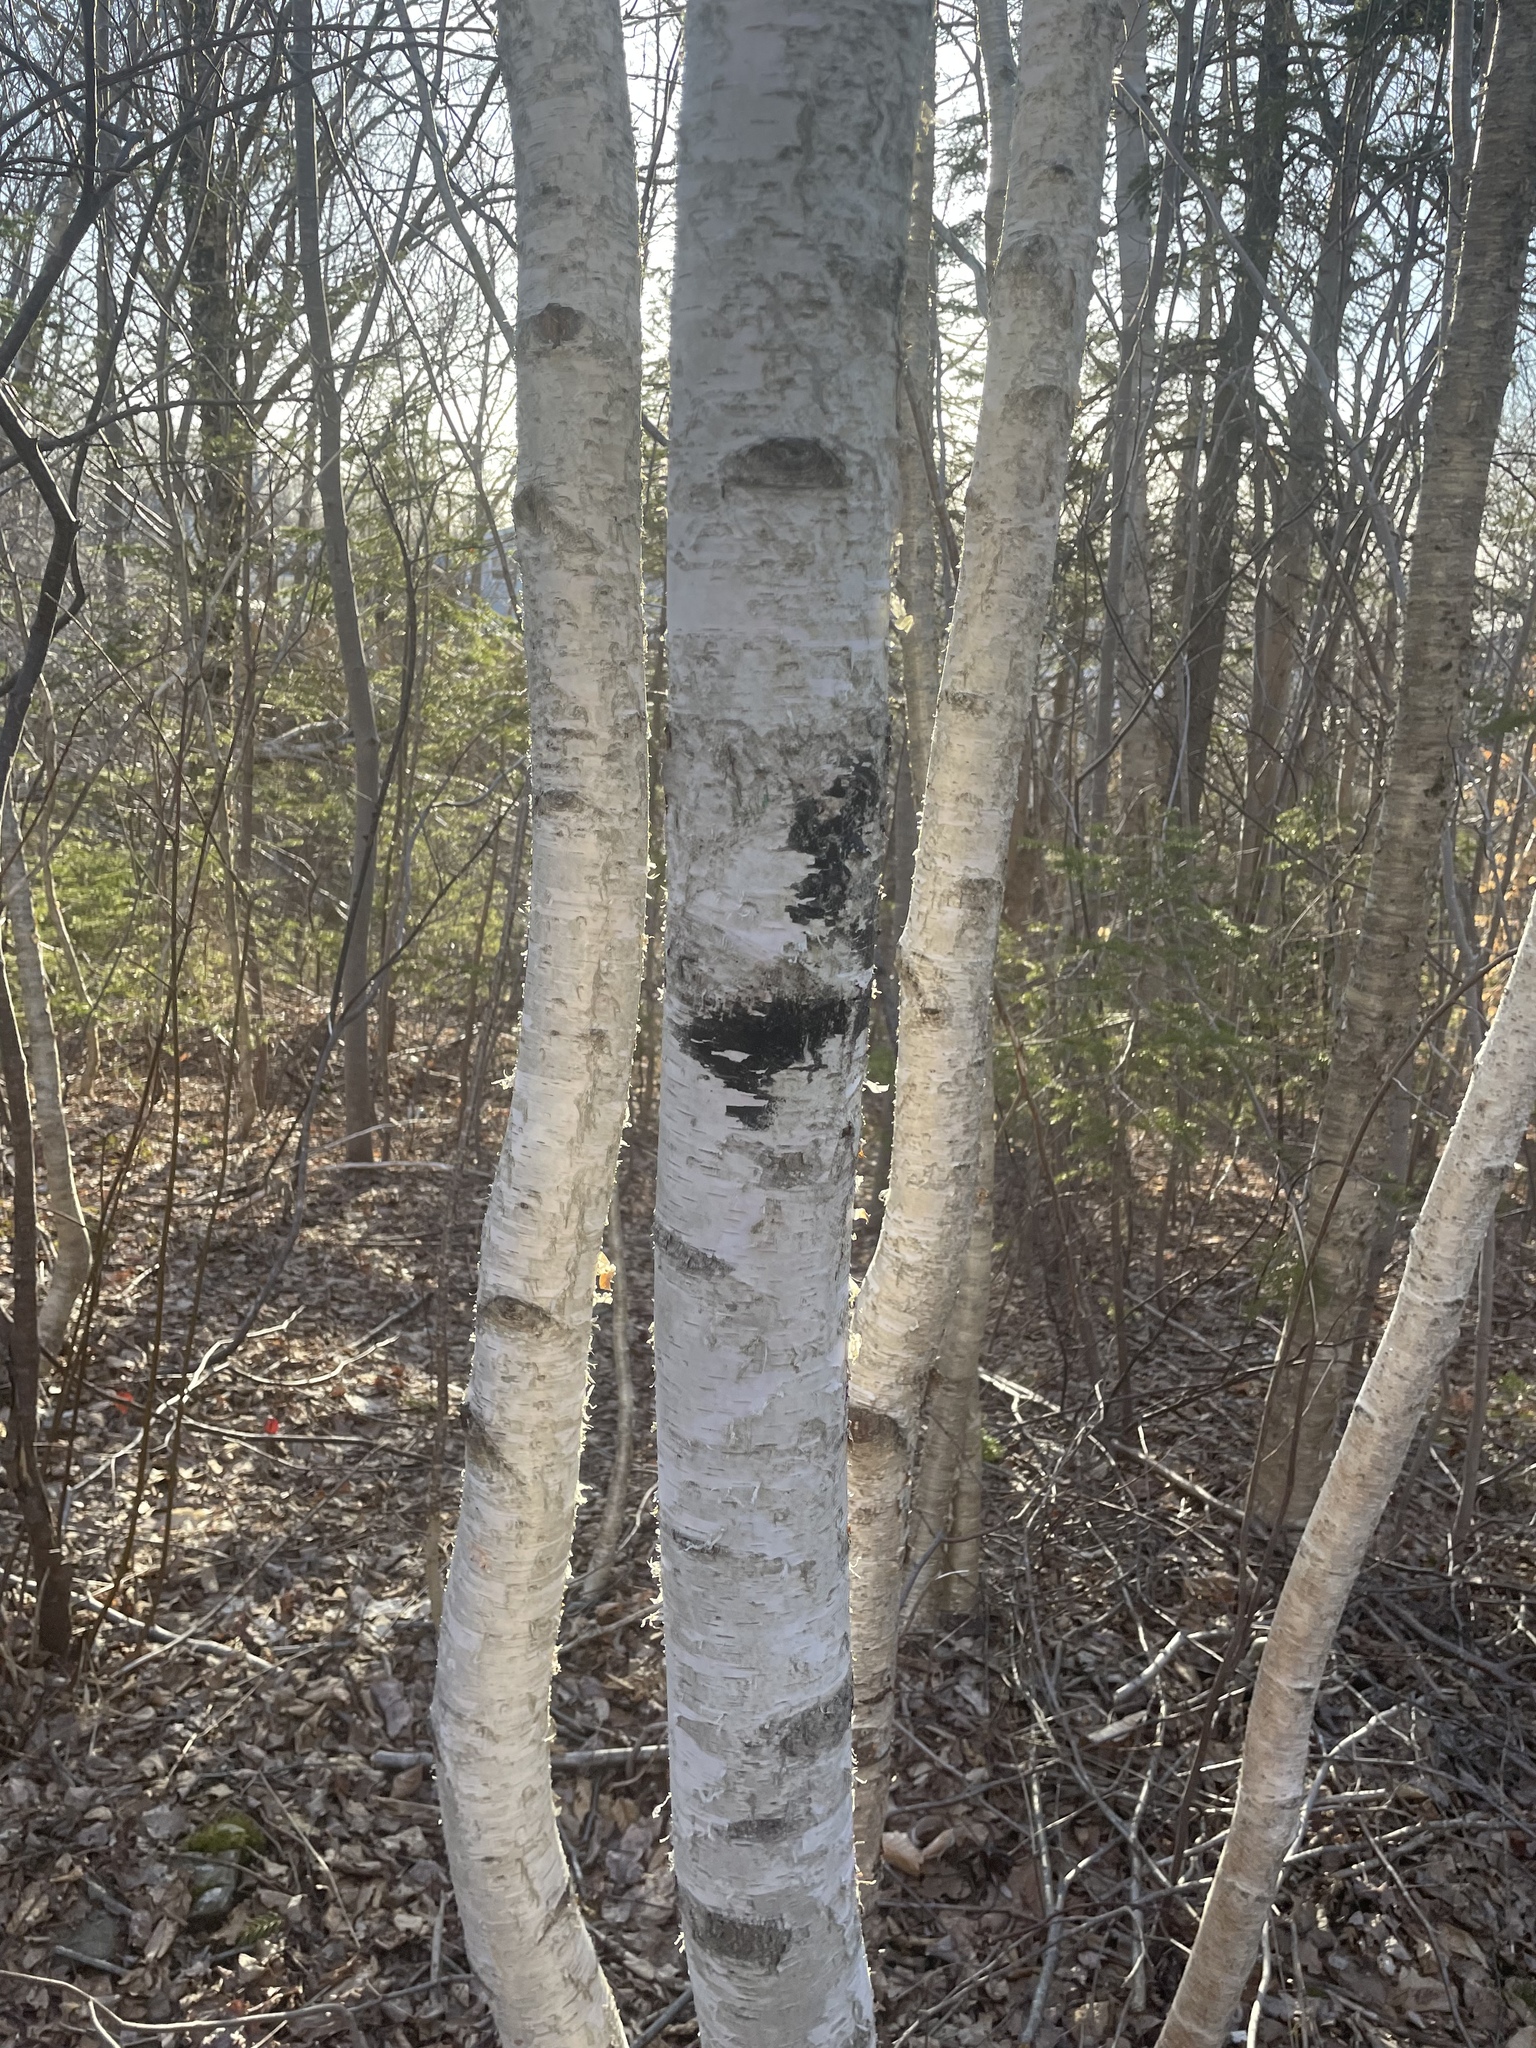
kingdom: Plantae
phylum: Tracheophyta
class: Magnoliopsida
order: Fagales
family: Betulaceae
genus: Betula
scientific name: Betula papyrifera
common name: Paper birch
